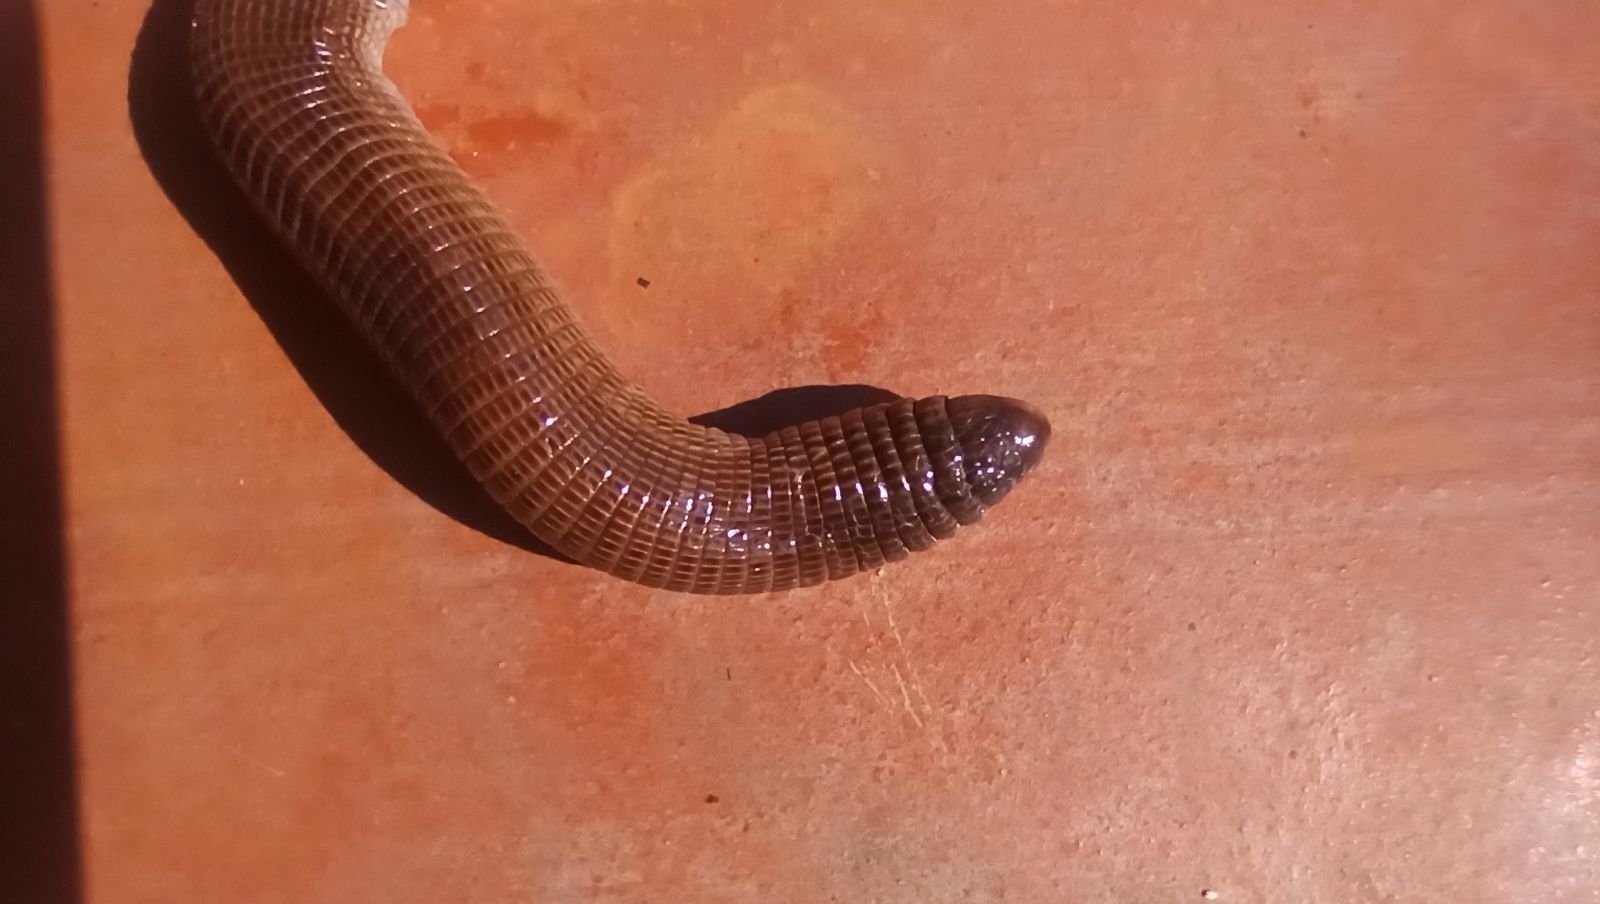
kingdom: Animalia
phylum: Chordata
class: Squamata
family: Amphisbaenidae
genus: Amphisbaena
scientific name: Amphisbaena darwinii
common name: Darwin's ringed worm lizard
